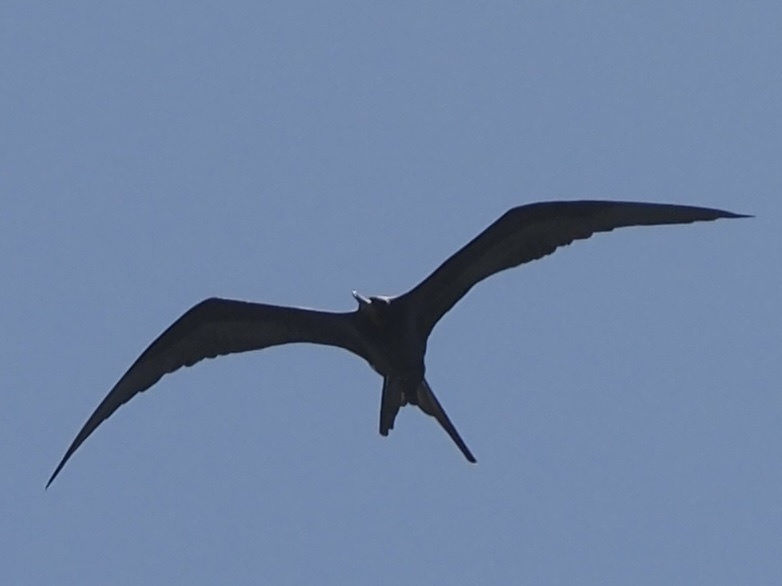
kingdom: Animalia
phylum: Chordata
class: Aves
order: Suliformes
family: Fregatidae
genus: Fregata
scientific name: Fregata magnificens
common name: Magnificent frigatebird
